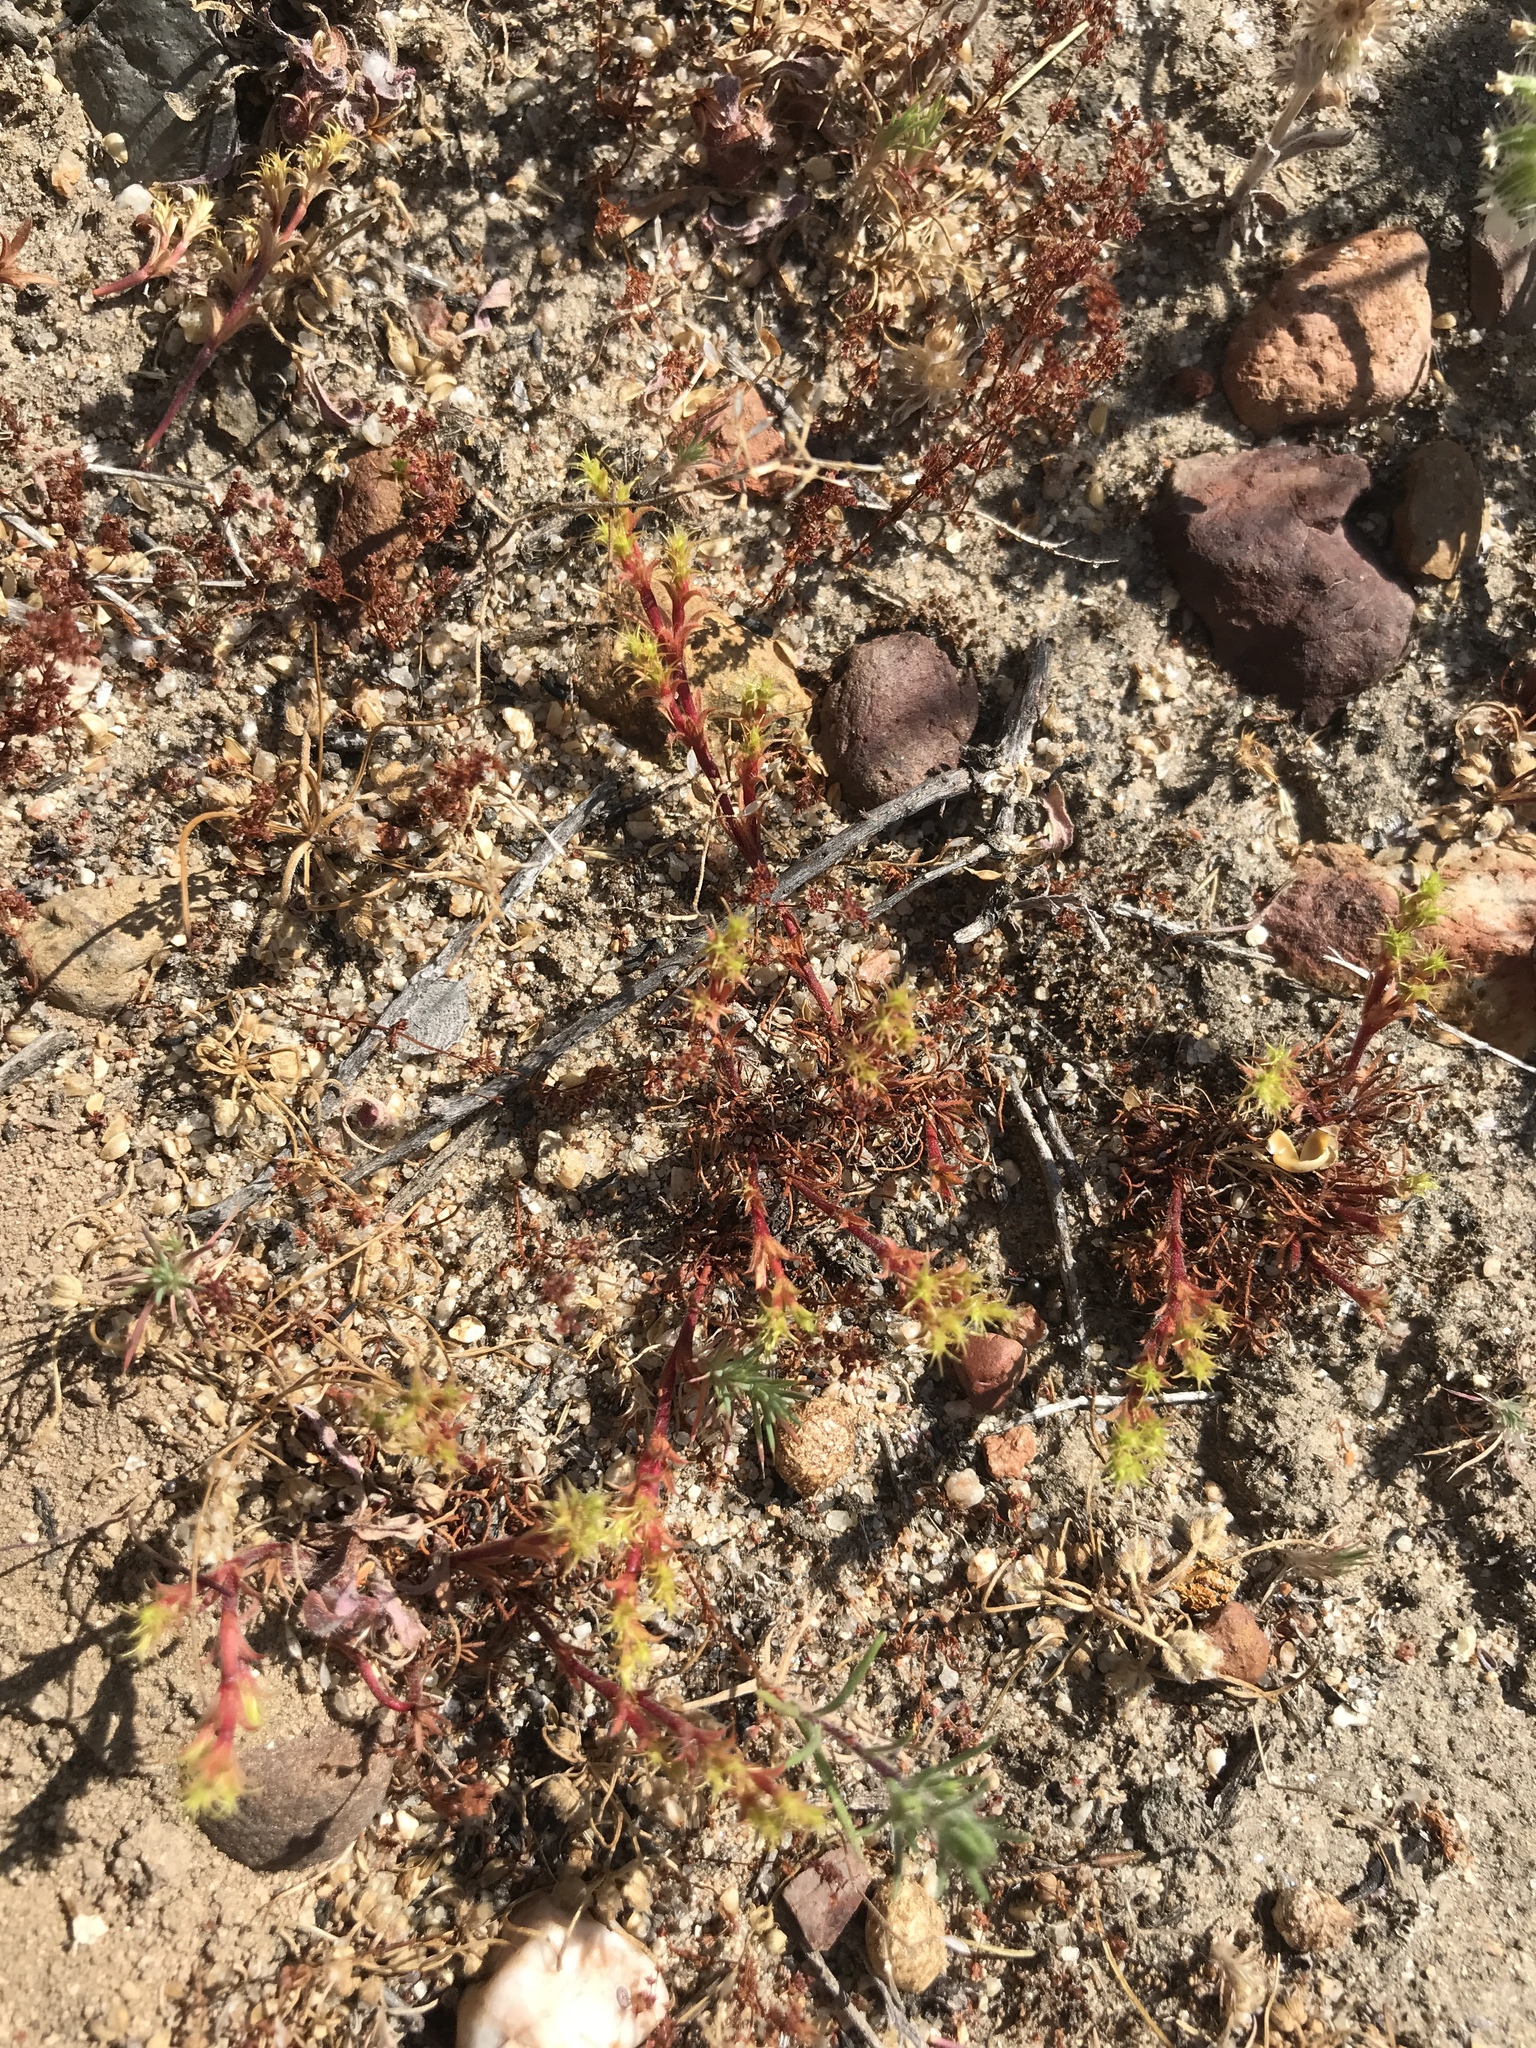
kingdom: Plantae
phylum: Tracheophyta
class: Magnoliopsida
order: Caryophyllales
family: Polygonaceae
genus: Lastarriaea
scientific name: Lastarriaea coriacea
